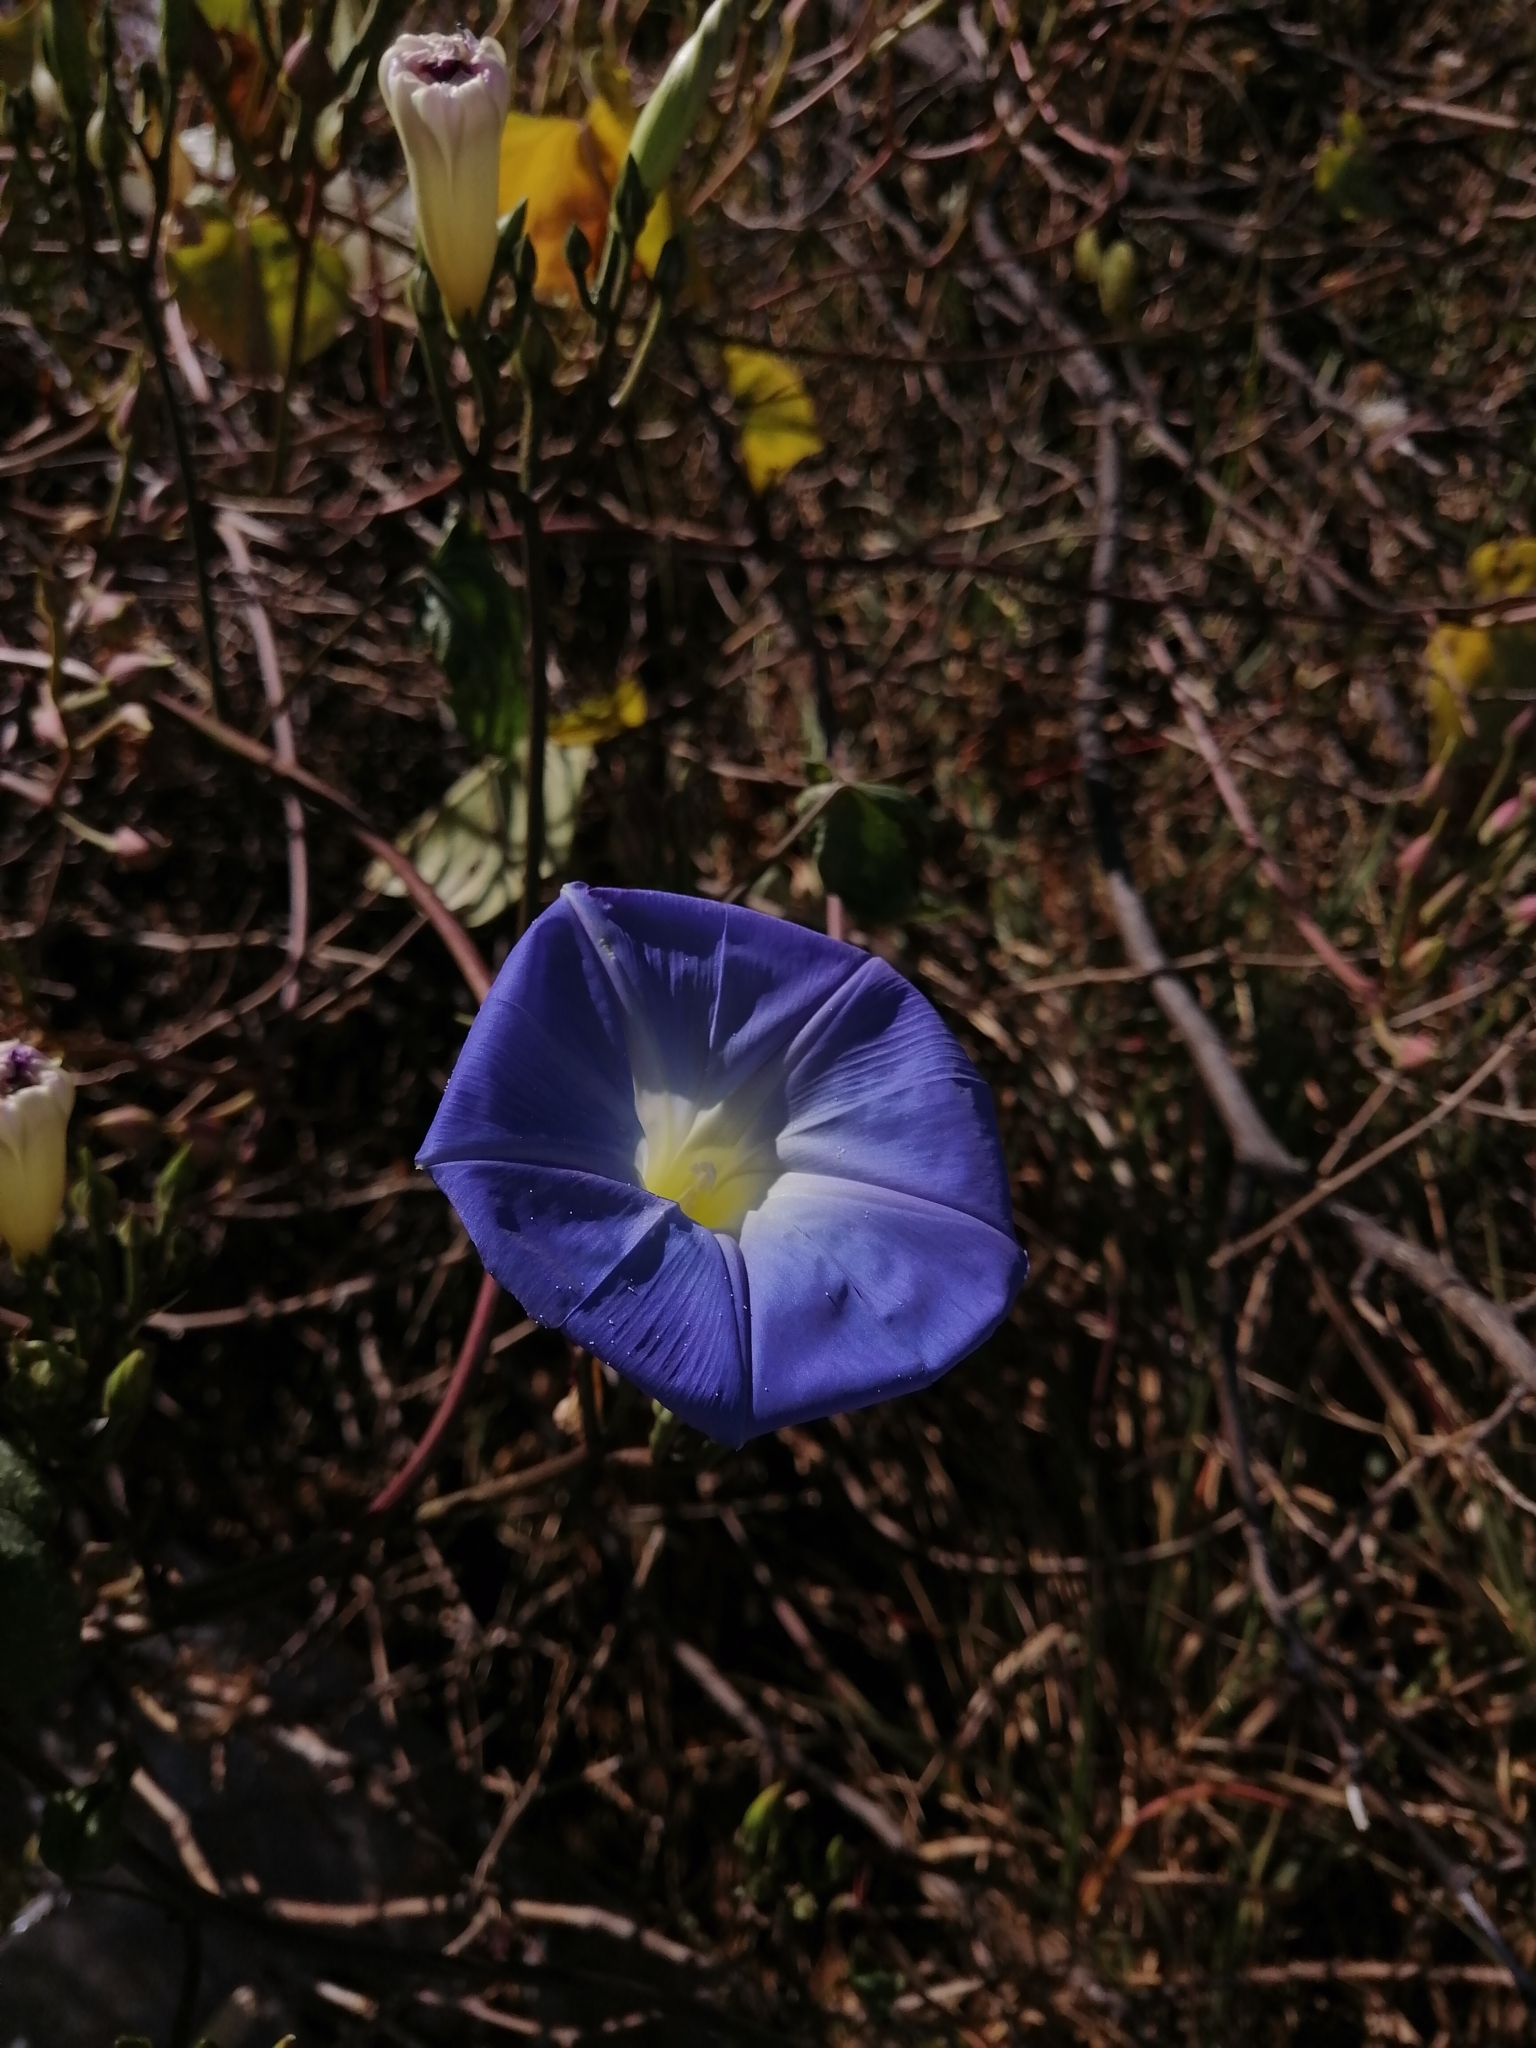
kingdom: Plantae
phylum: Tracheophyta
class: Magnoliopsida
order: Solanales
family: Convolvulaceae
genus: Ipomoea
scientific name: Ipomoea tricolor
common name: Morning-glory
